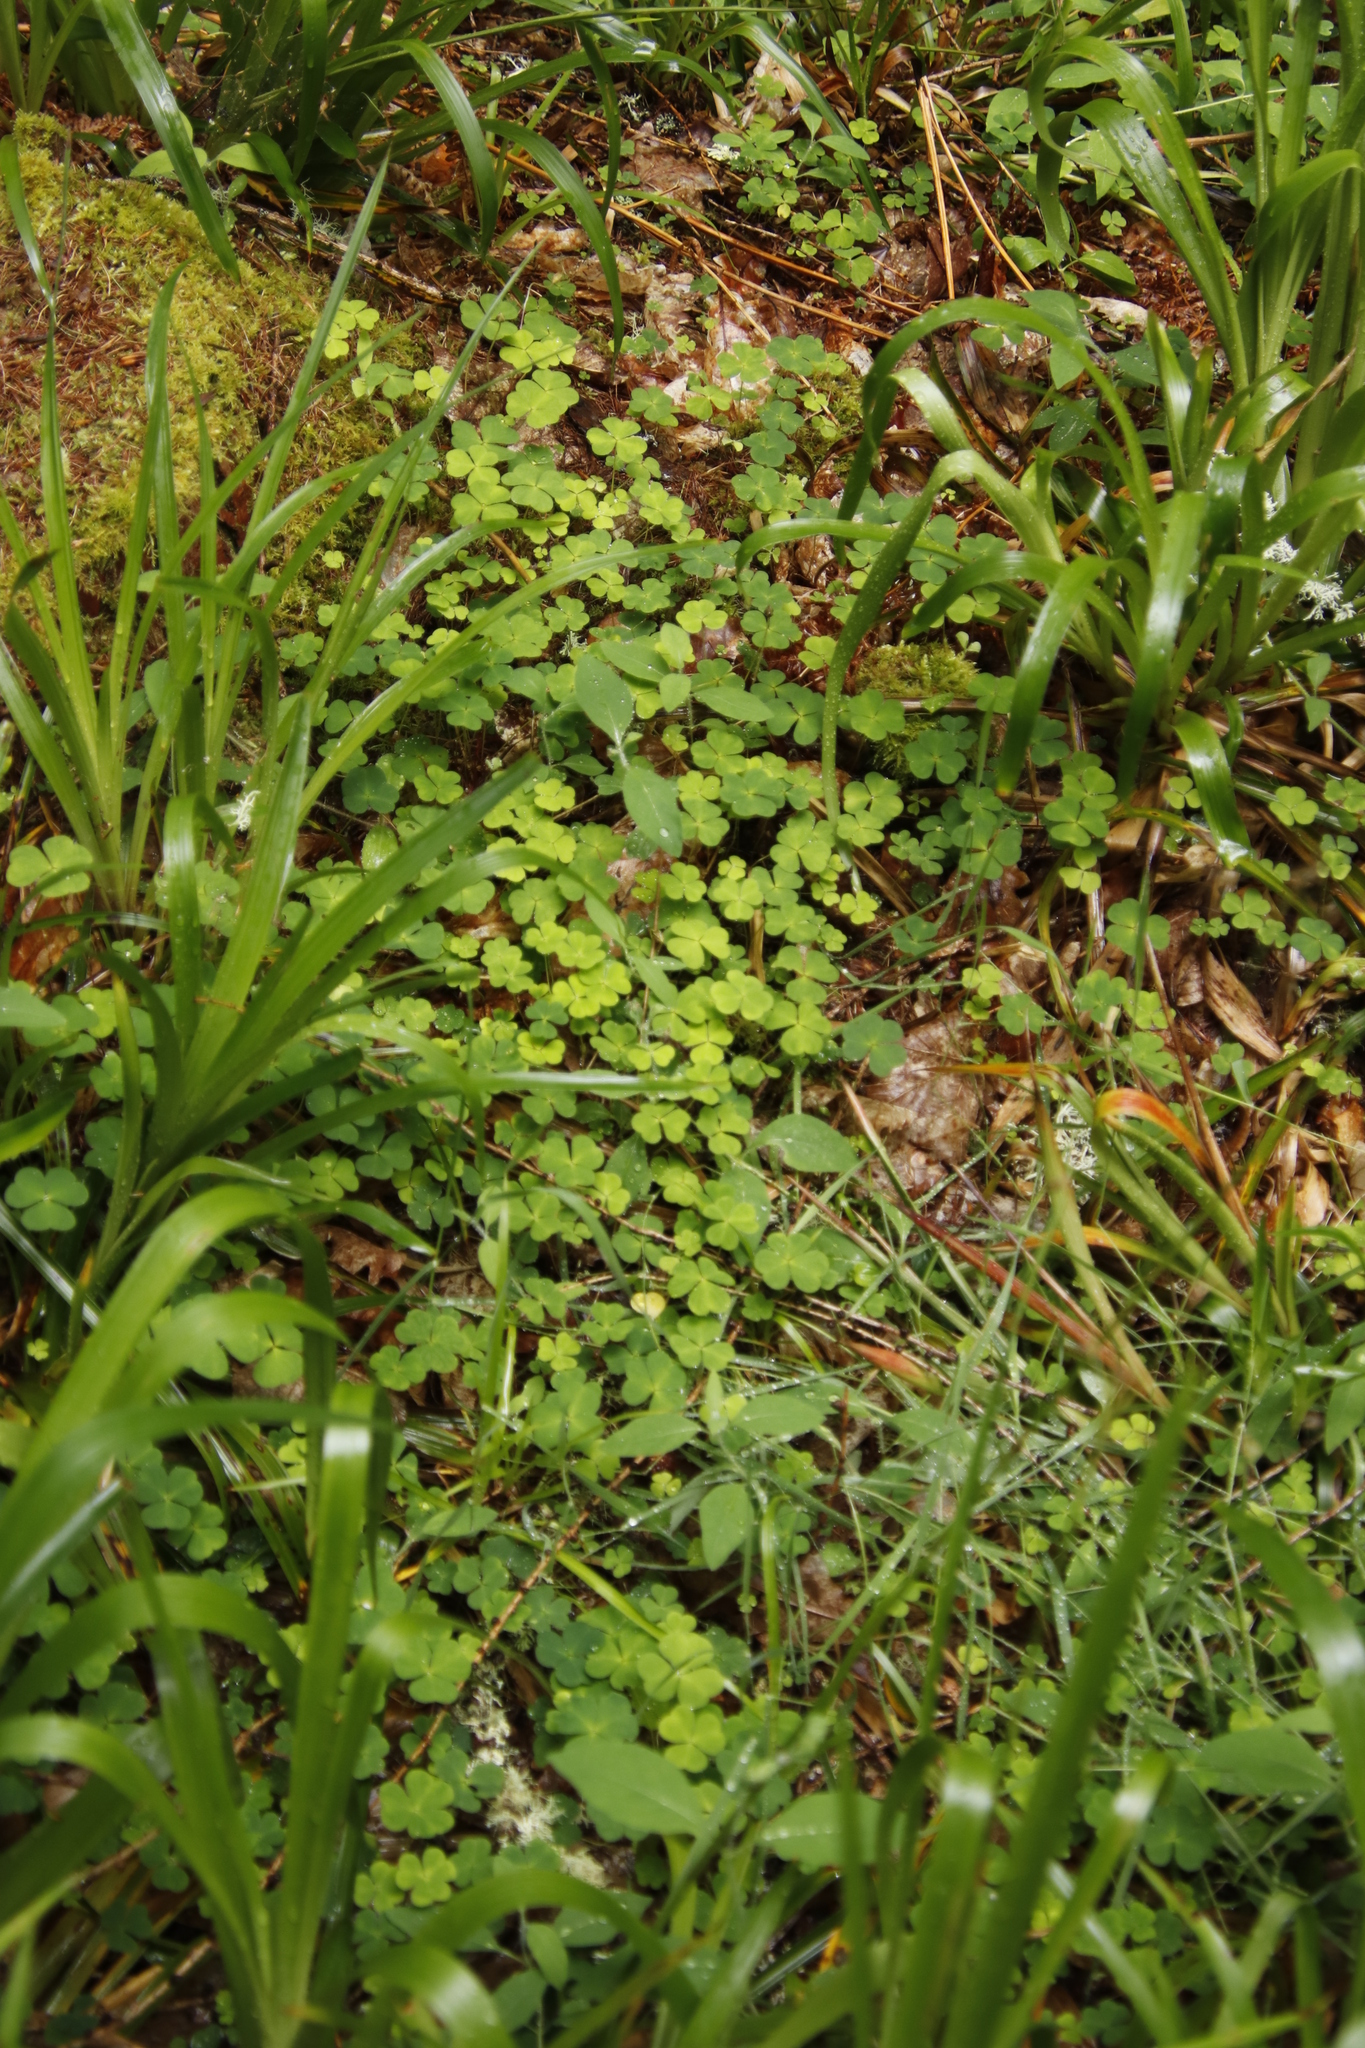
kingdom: Plantae
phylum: Tracheophyta
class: Magnoliopsida
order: Oxalidales
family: Oxalidaceae
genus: Oxalis
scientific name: Oxalis acetosella
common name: Wood-sorrel
